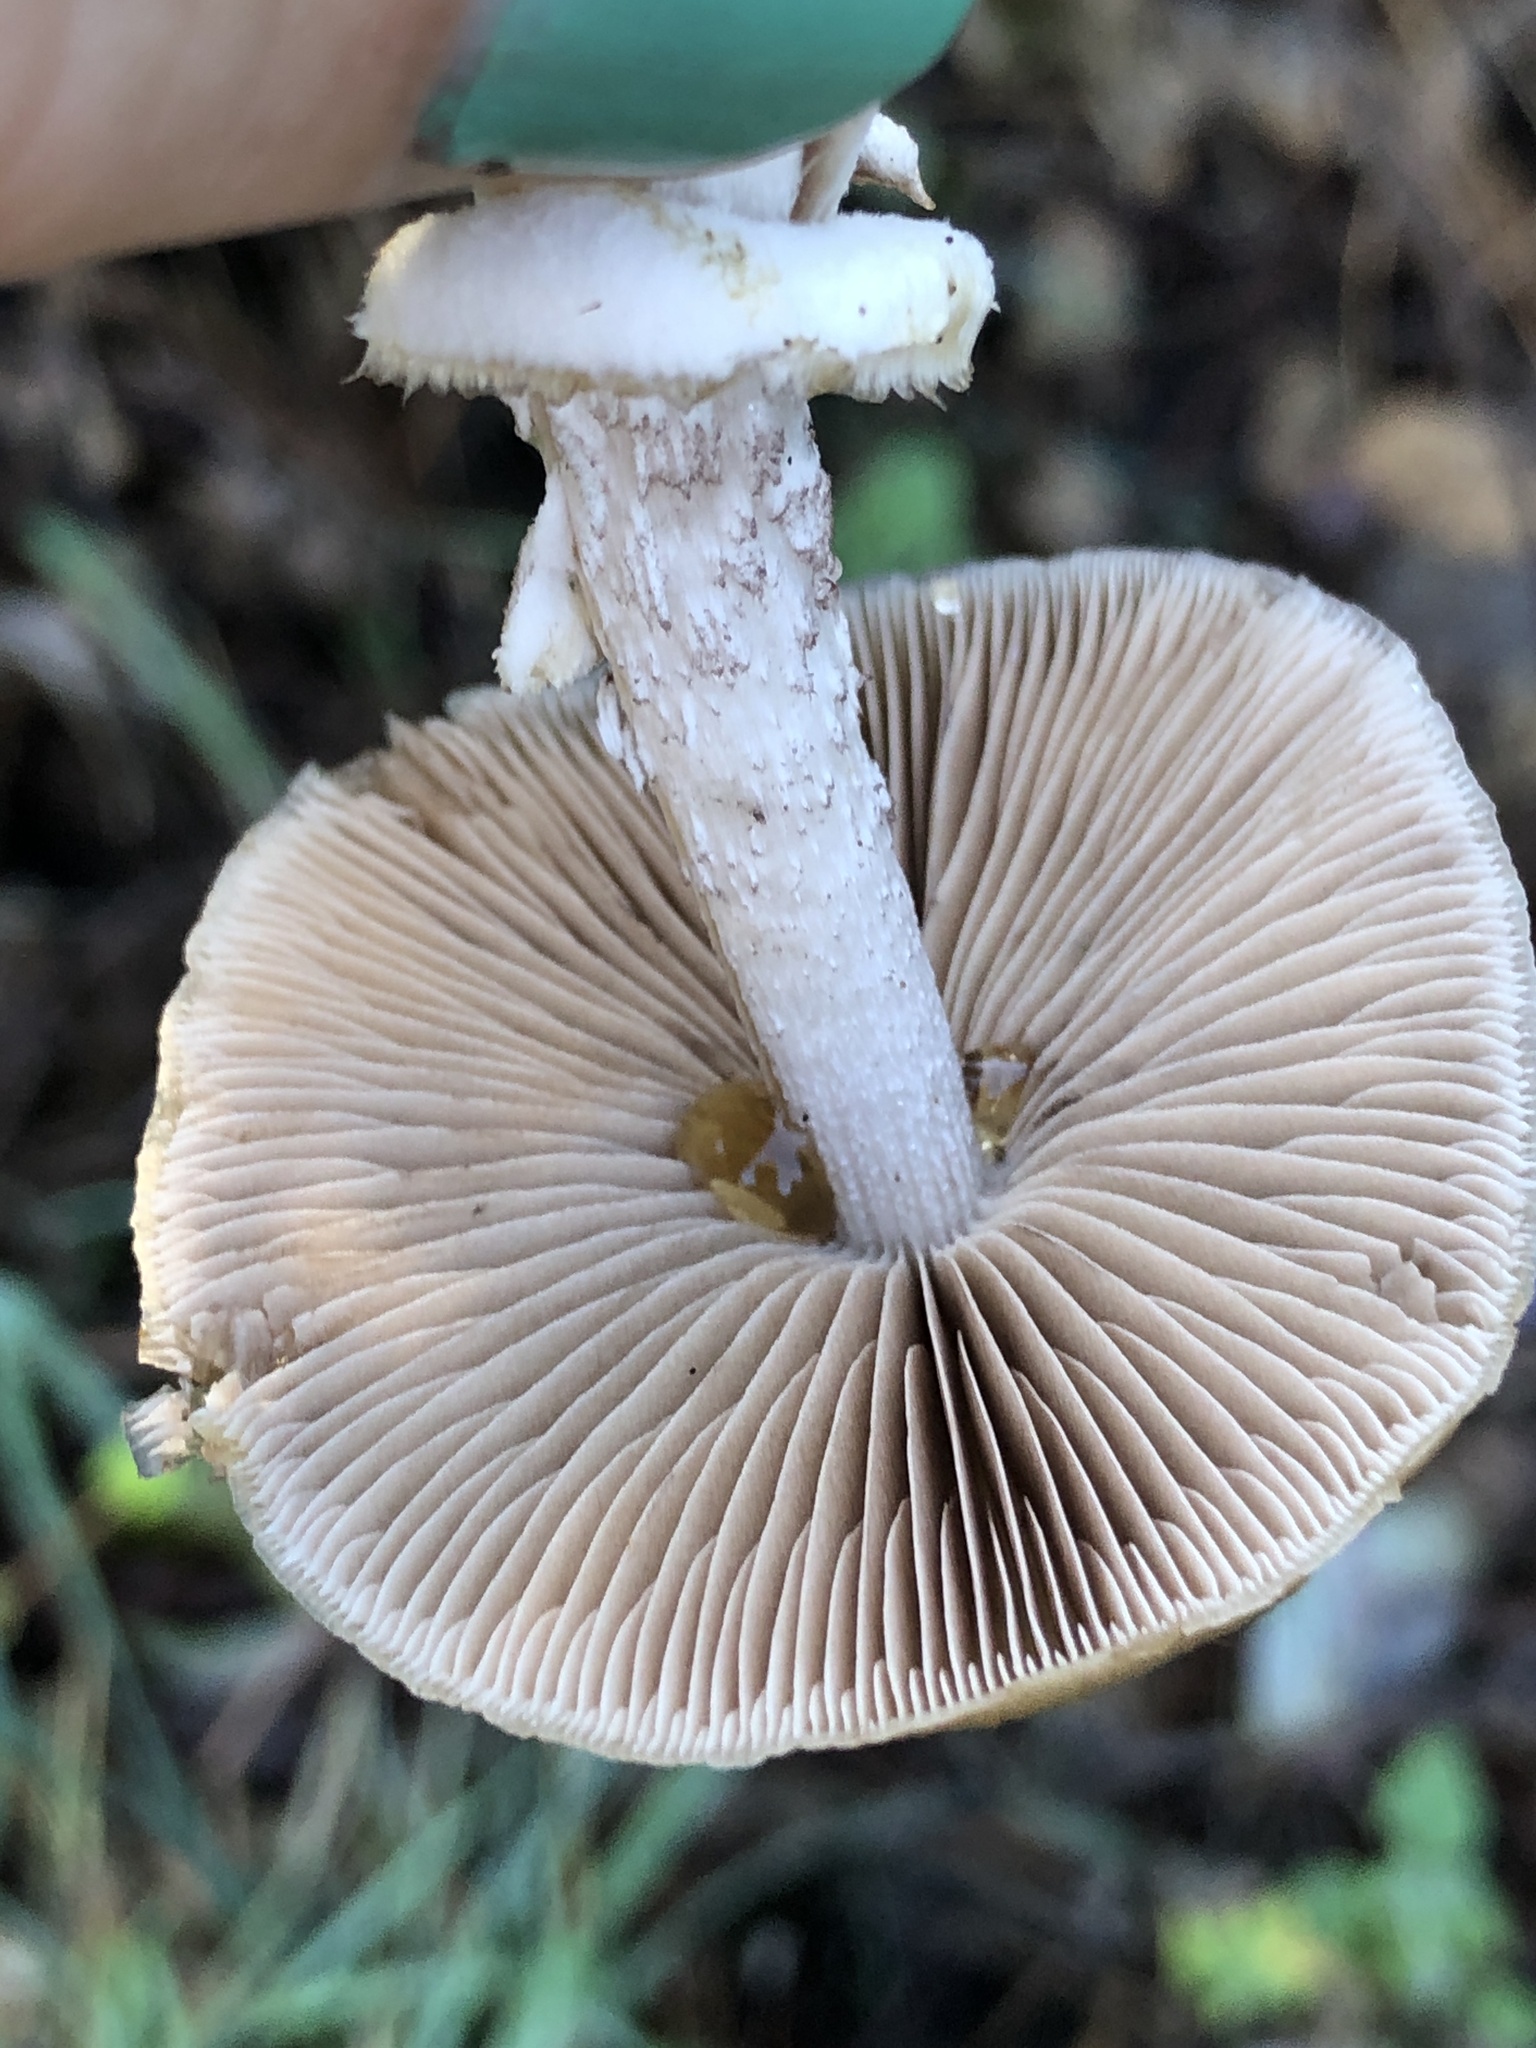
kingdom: Fungi
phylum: Basidiomycota
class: Agaricomycetes
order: Agaricales
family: Psathyrellaceae
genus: Psathyrella
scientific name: Psathyrella longistriata
